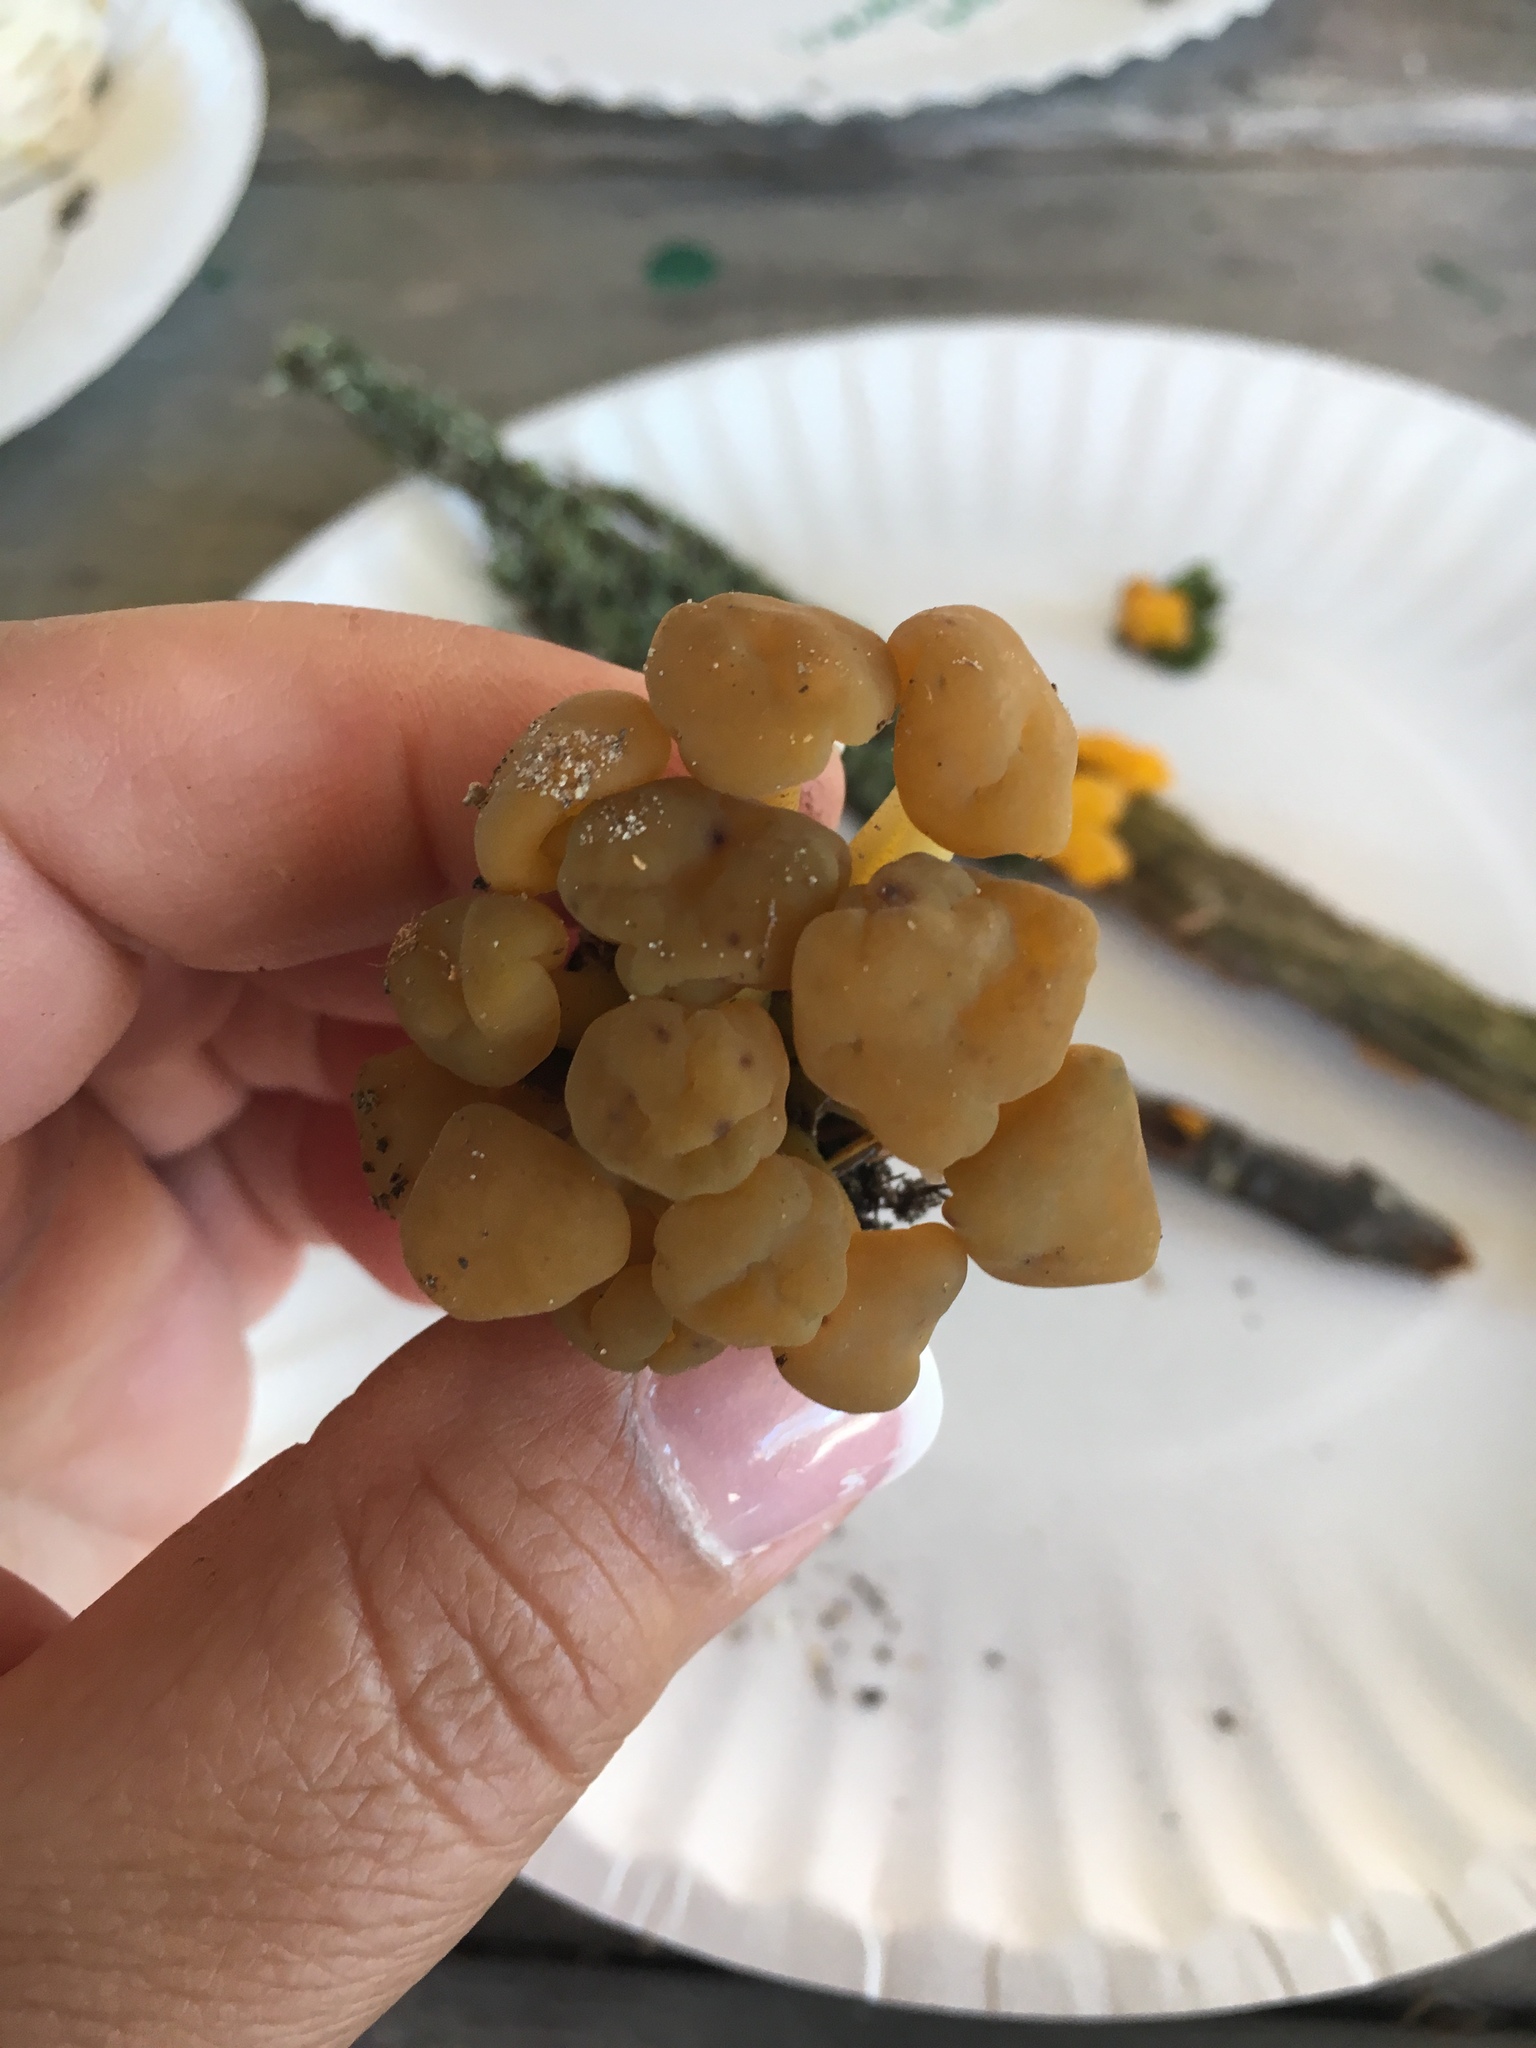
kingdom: Fungi
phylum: Ascomycota
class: Leotiomycetes
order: Leotiales
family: Leotiaceae
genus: Leotia
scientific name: Leotia lubrica
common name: Jellybaby
